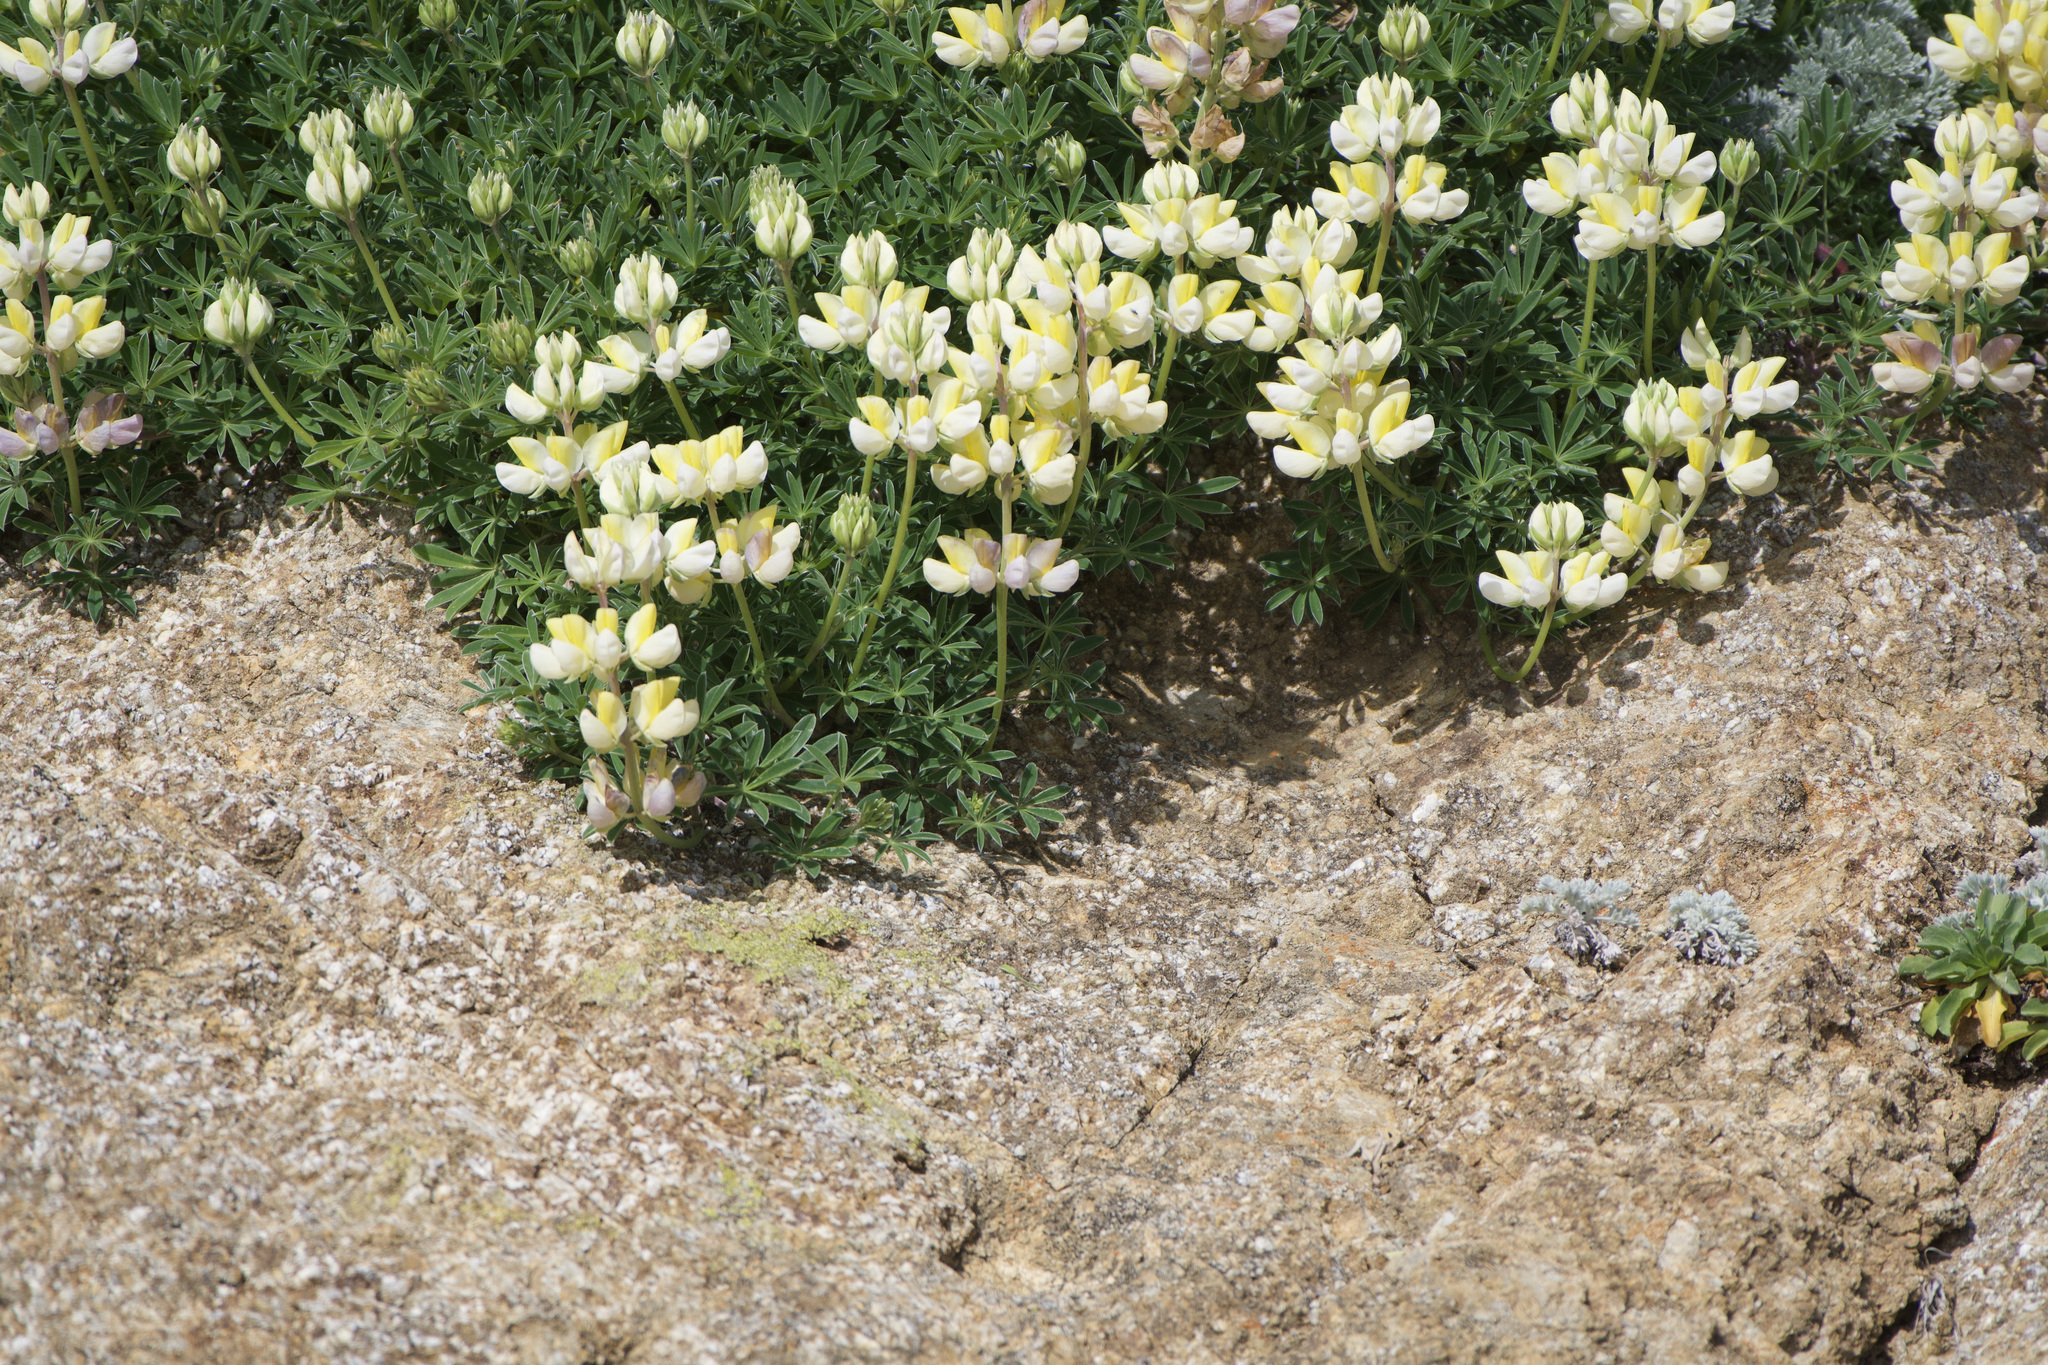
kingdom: Plantae
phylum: Tracheophyta
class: Magnoliopsida
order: Fabales
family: Fabaceae
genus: Lupinus
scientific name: Lupinus arboreus
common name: Yellow bush lupine
